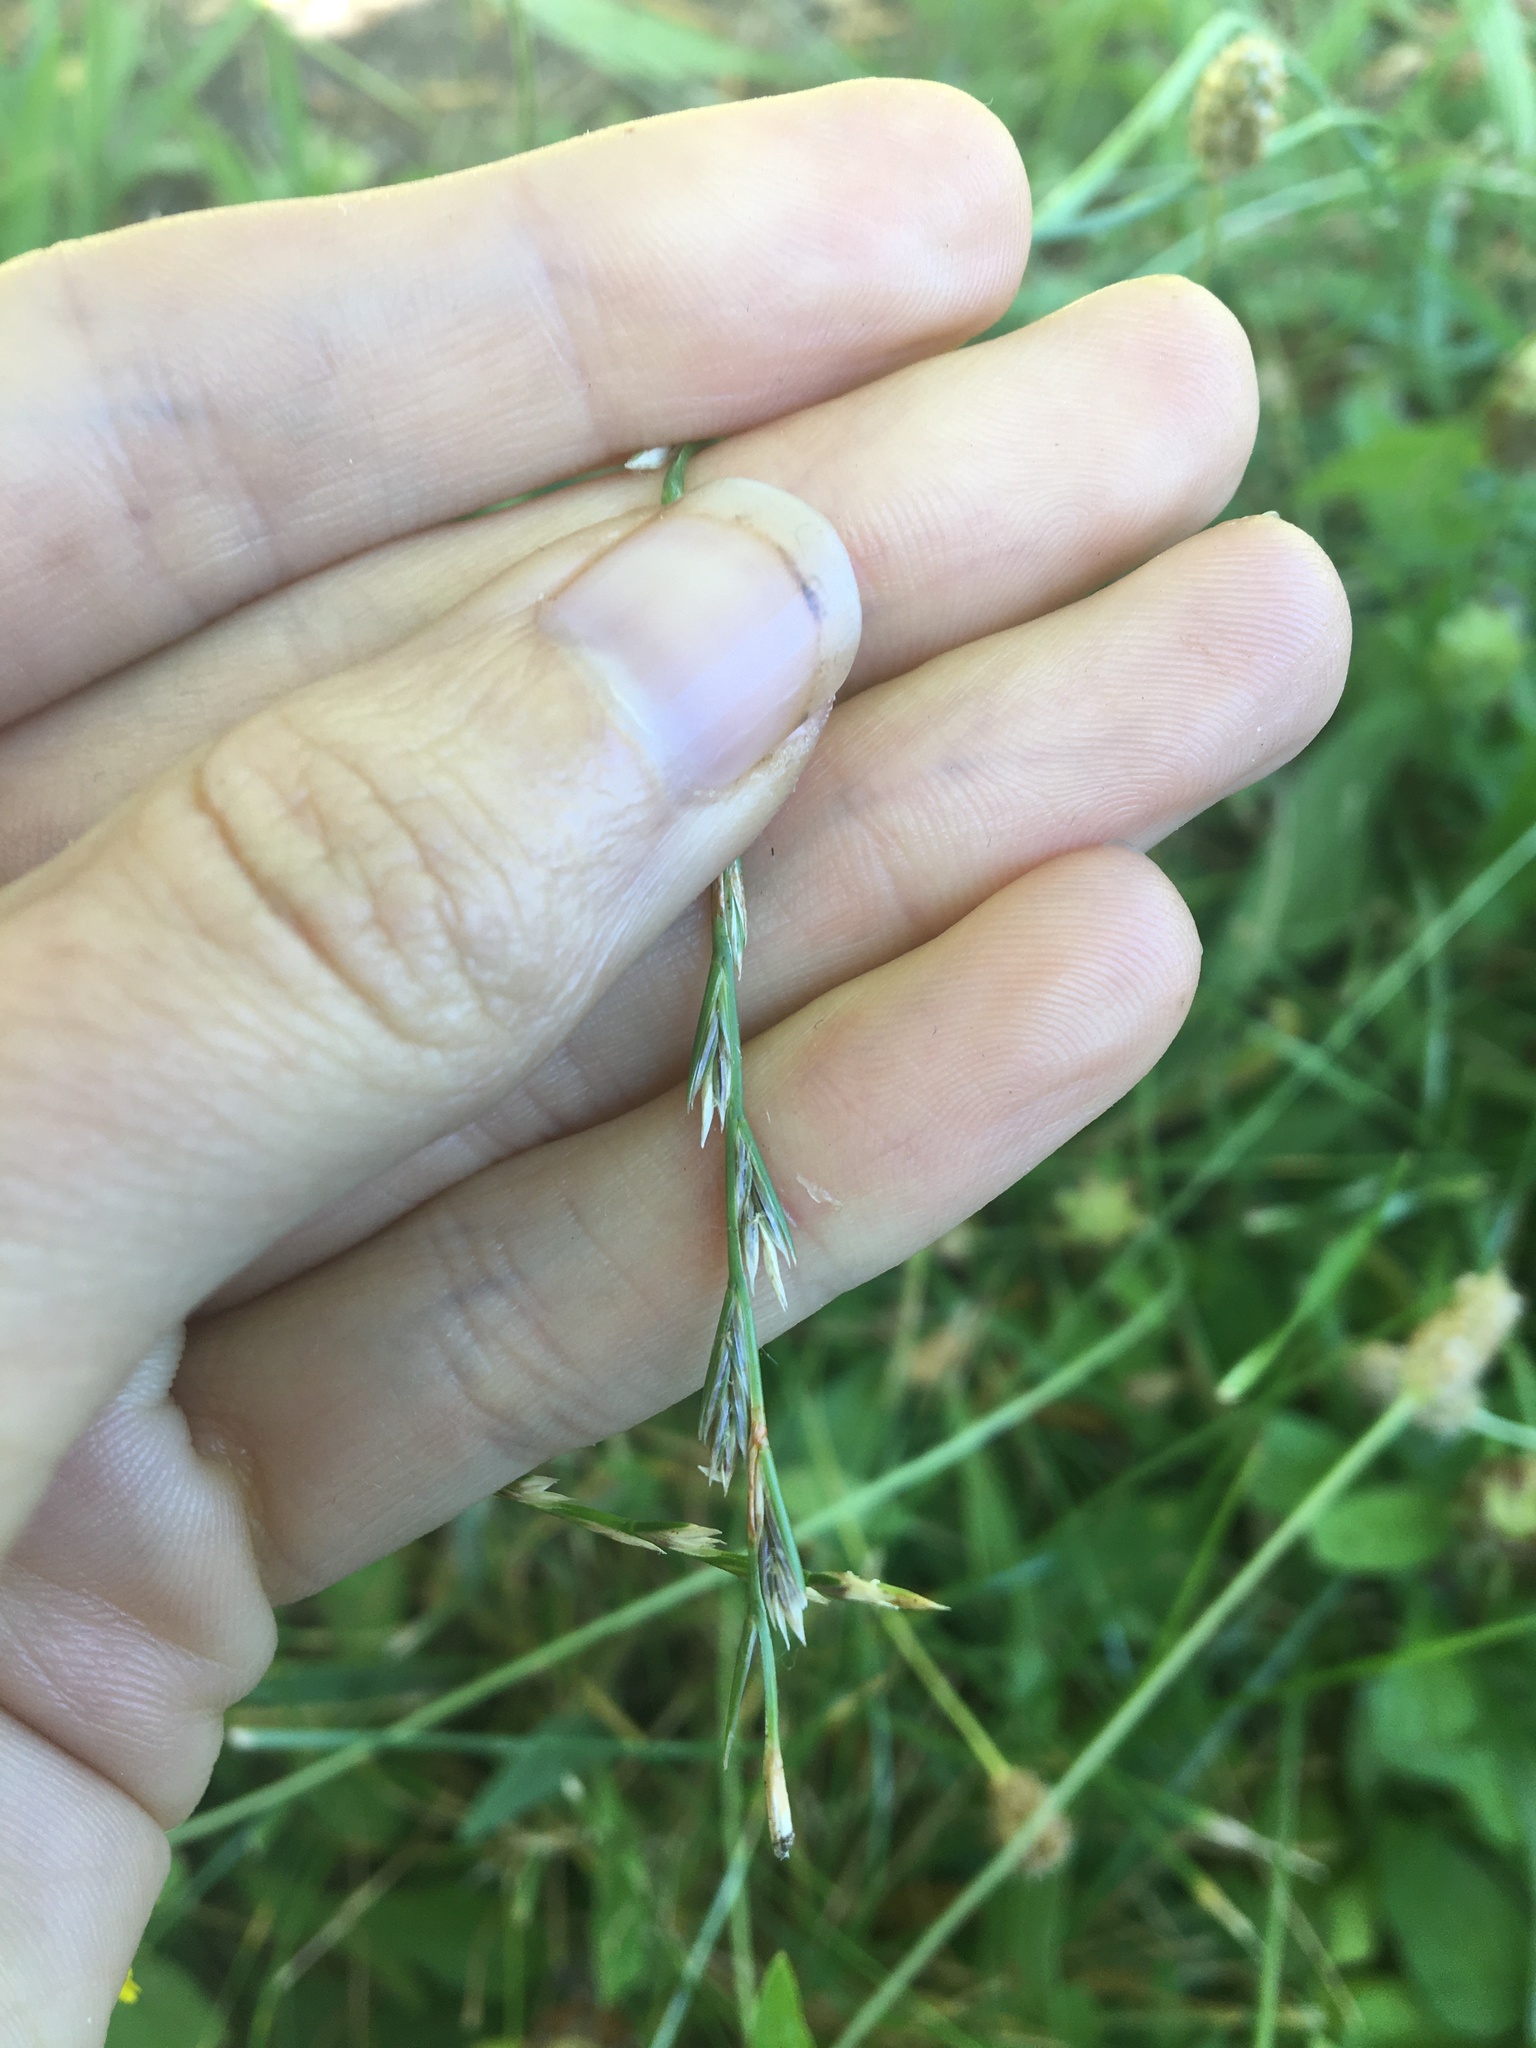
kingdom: Plantae
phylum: Tracheophyta
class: Liliopsida
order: Poales
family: Poaceae
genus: Lolium
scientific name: Lolium perenne
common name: Perennial ryegrass
